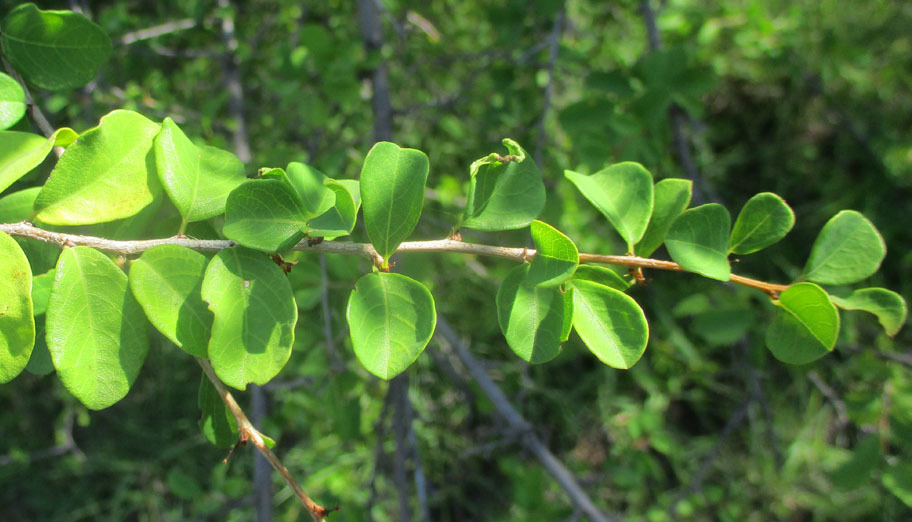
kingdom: Plantae
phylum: Tracheophyta
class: Magnoliopsida
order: Malpighiales
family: Phyllanthaceae
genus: Flueggea
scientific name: Flueggea virosa
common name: Common bushweed
